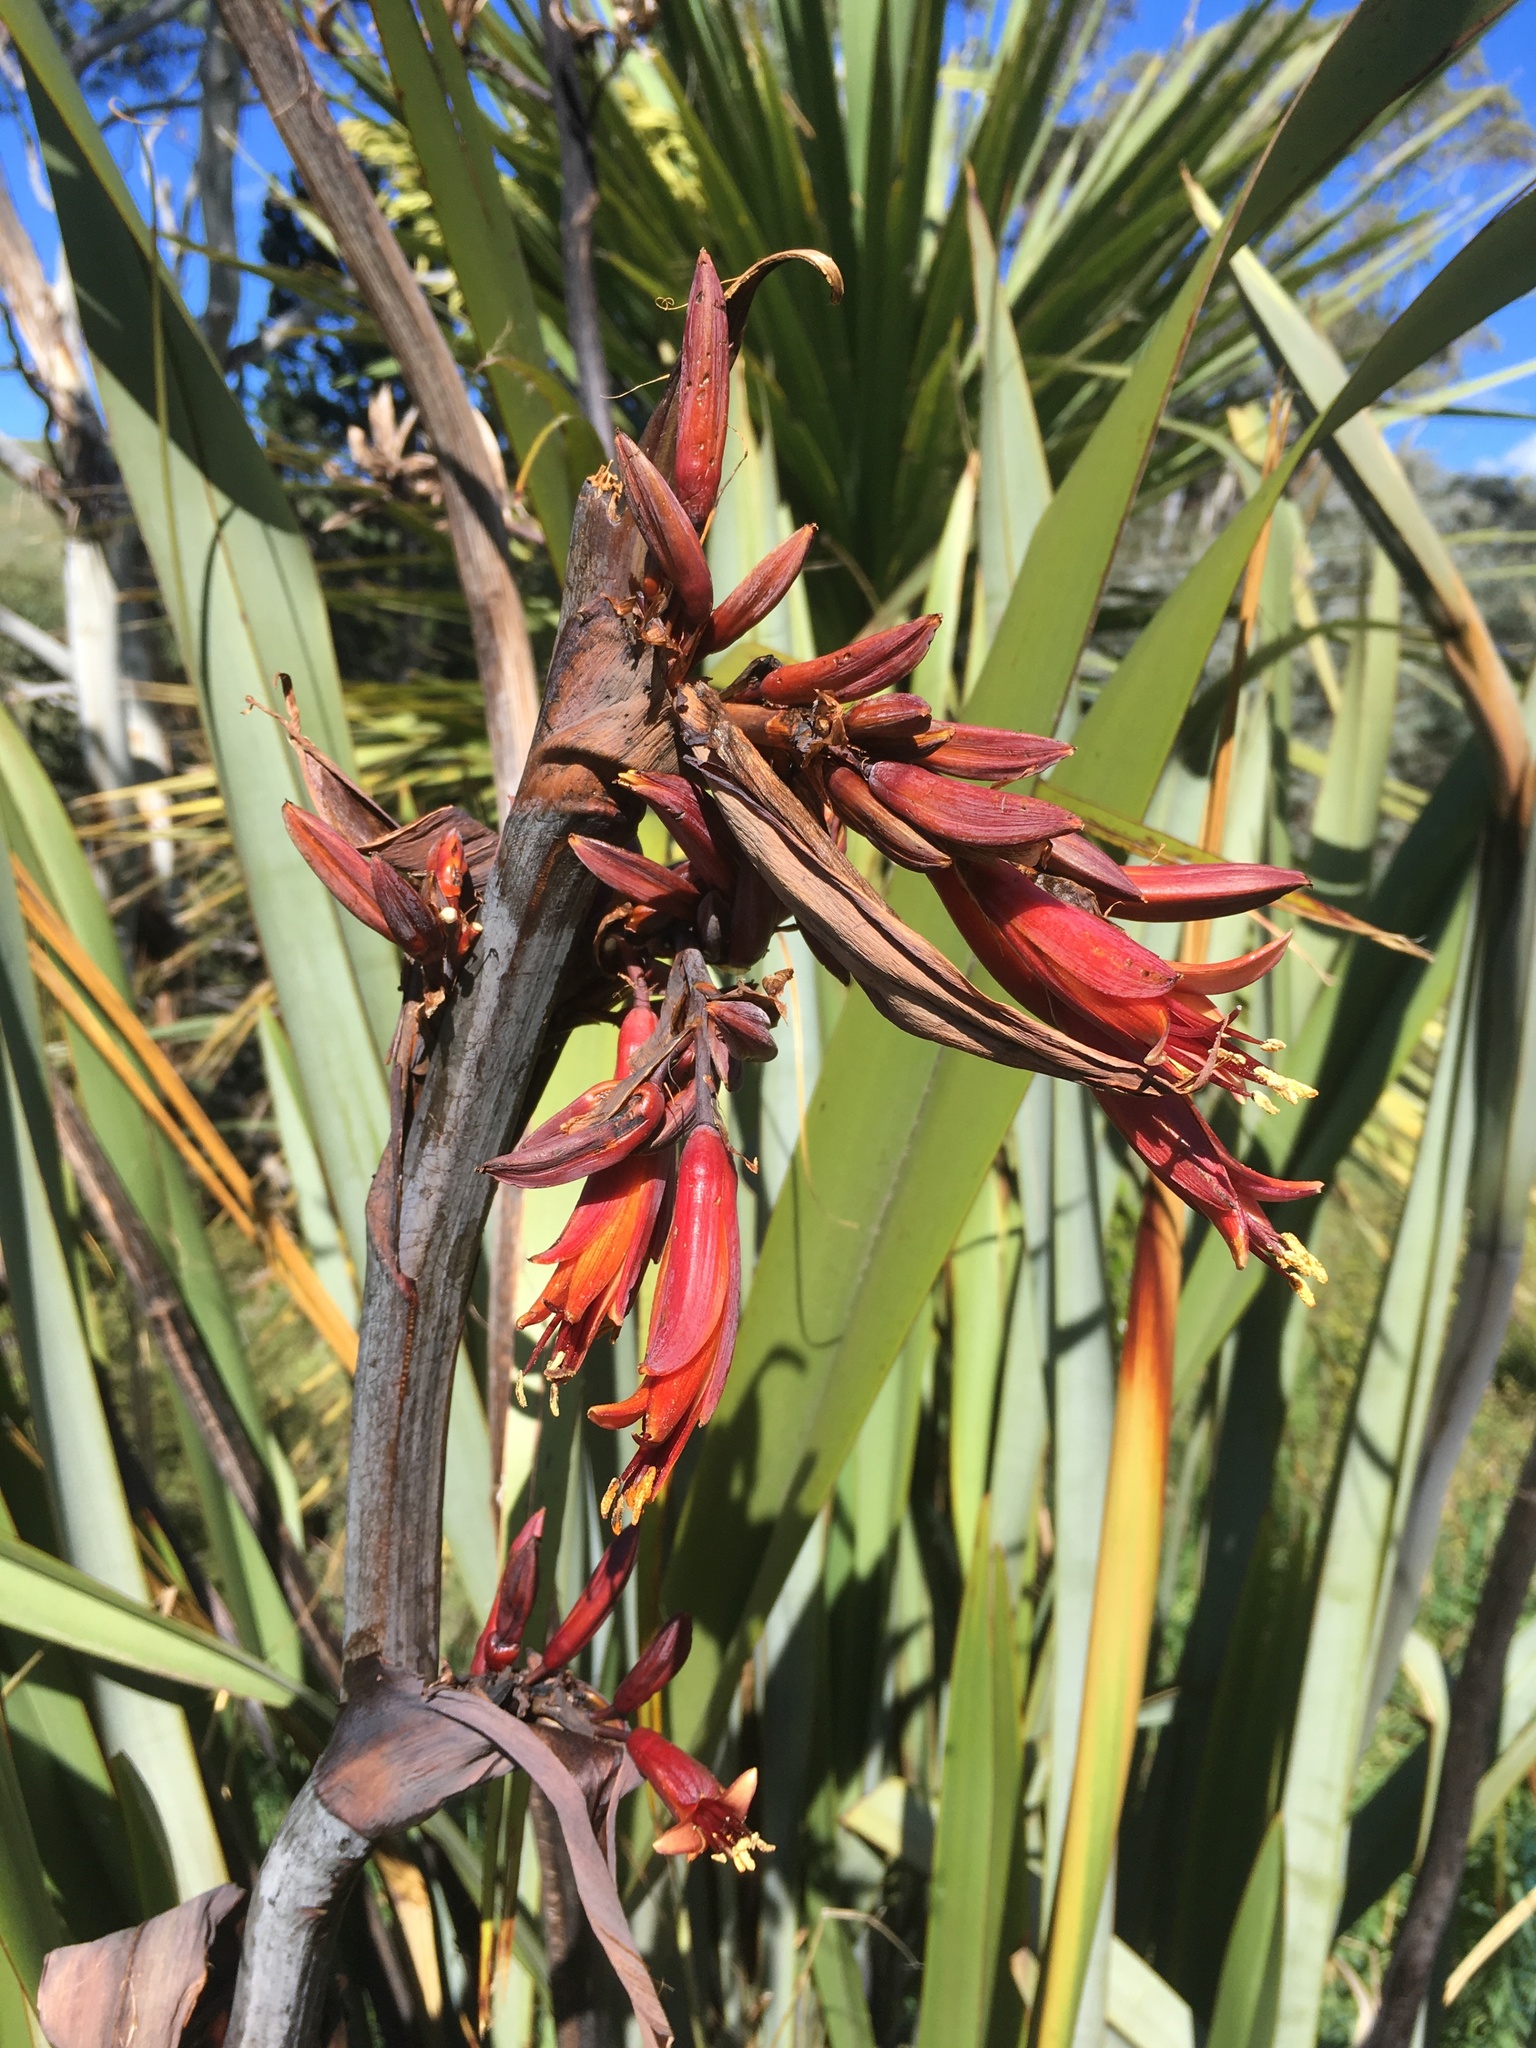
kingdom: Plantae
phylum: Tracheophyta
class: Liliopsida
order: Asparagales
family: Asphodelaceae
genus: Phormium
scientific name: Phormium tenax
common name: New zealand flax
